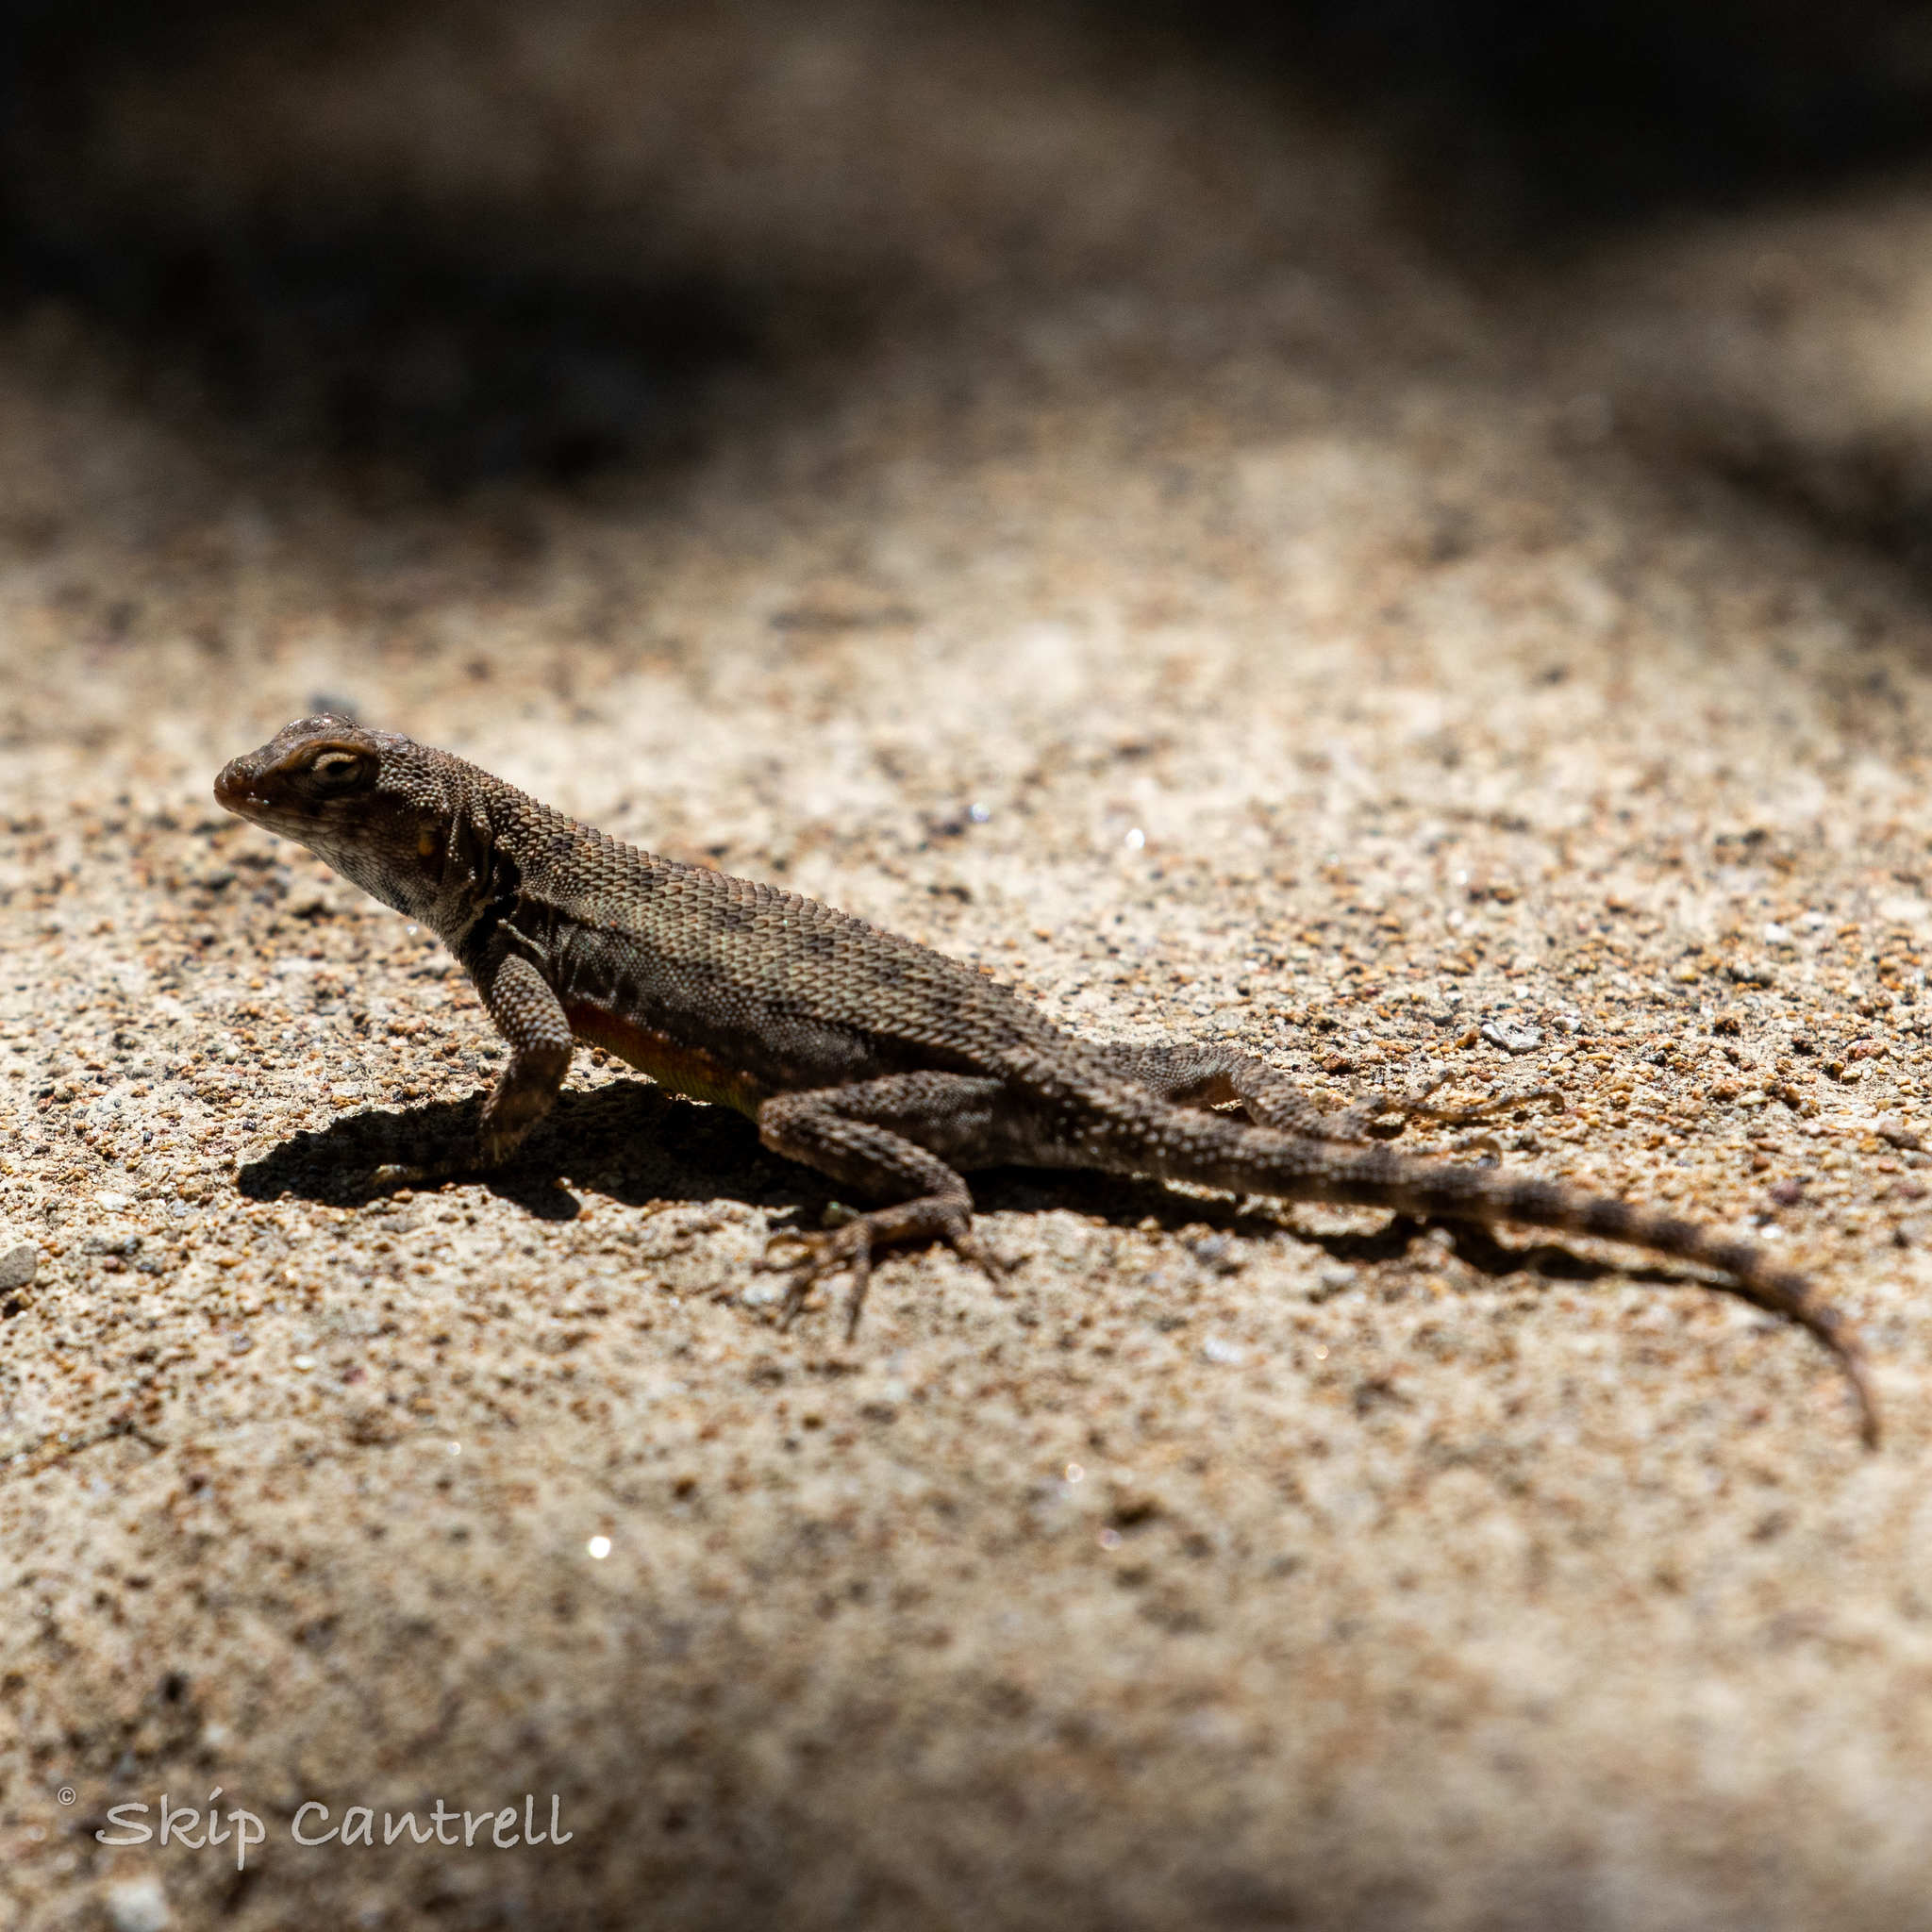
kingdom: Animalia
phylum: Chordata
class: Squamata
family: Phrynosomatidae
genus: Sceloporus
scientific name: Sceloporus merriami
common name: Canyon lizard
